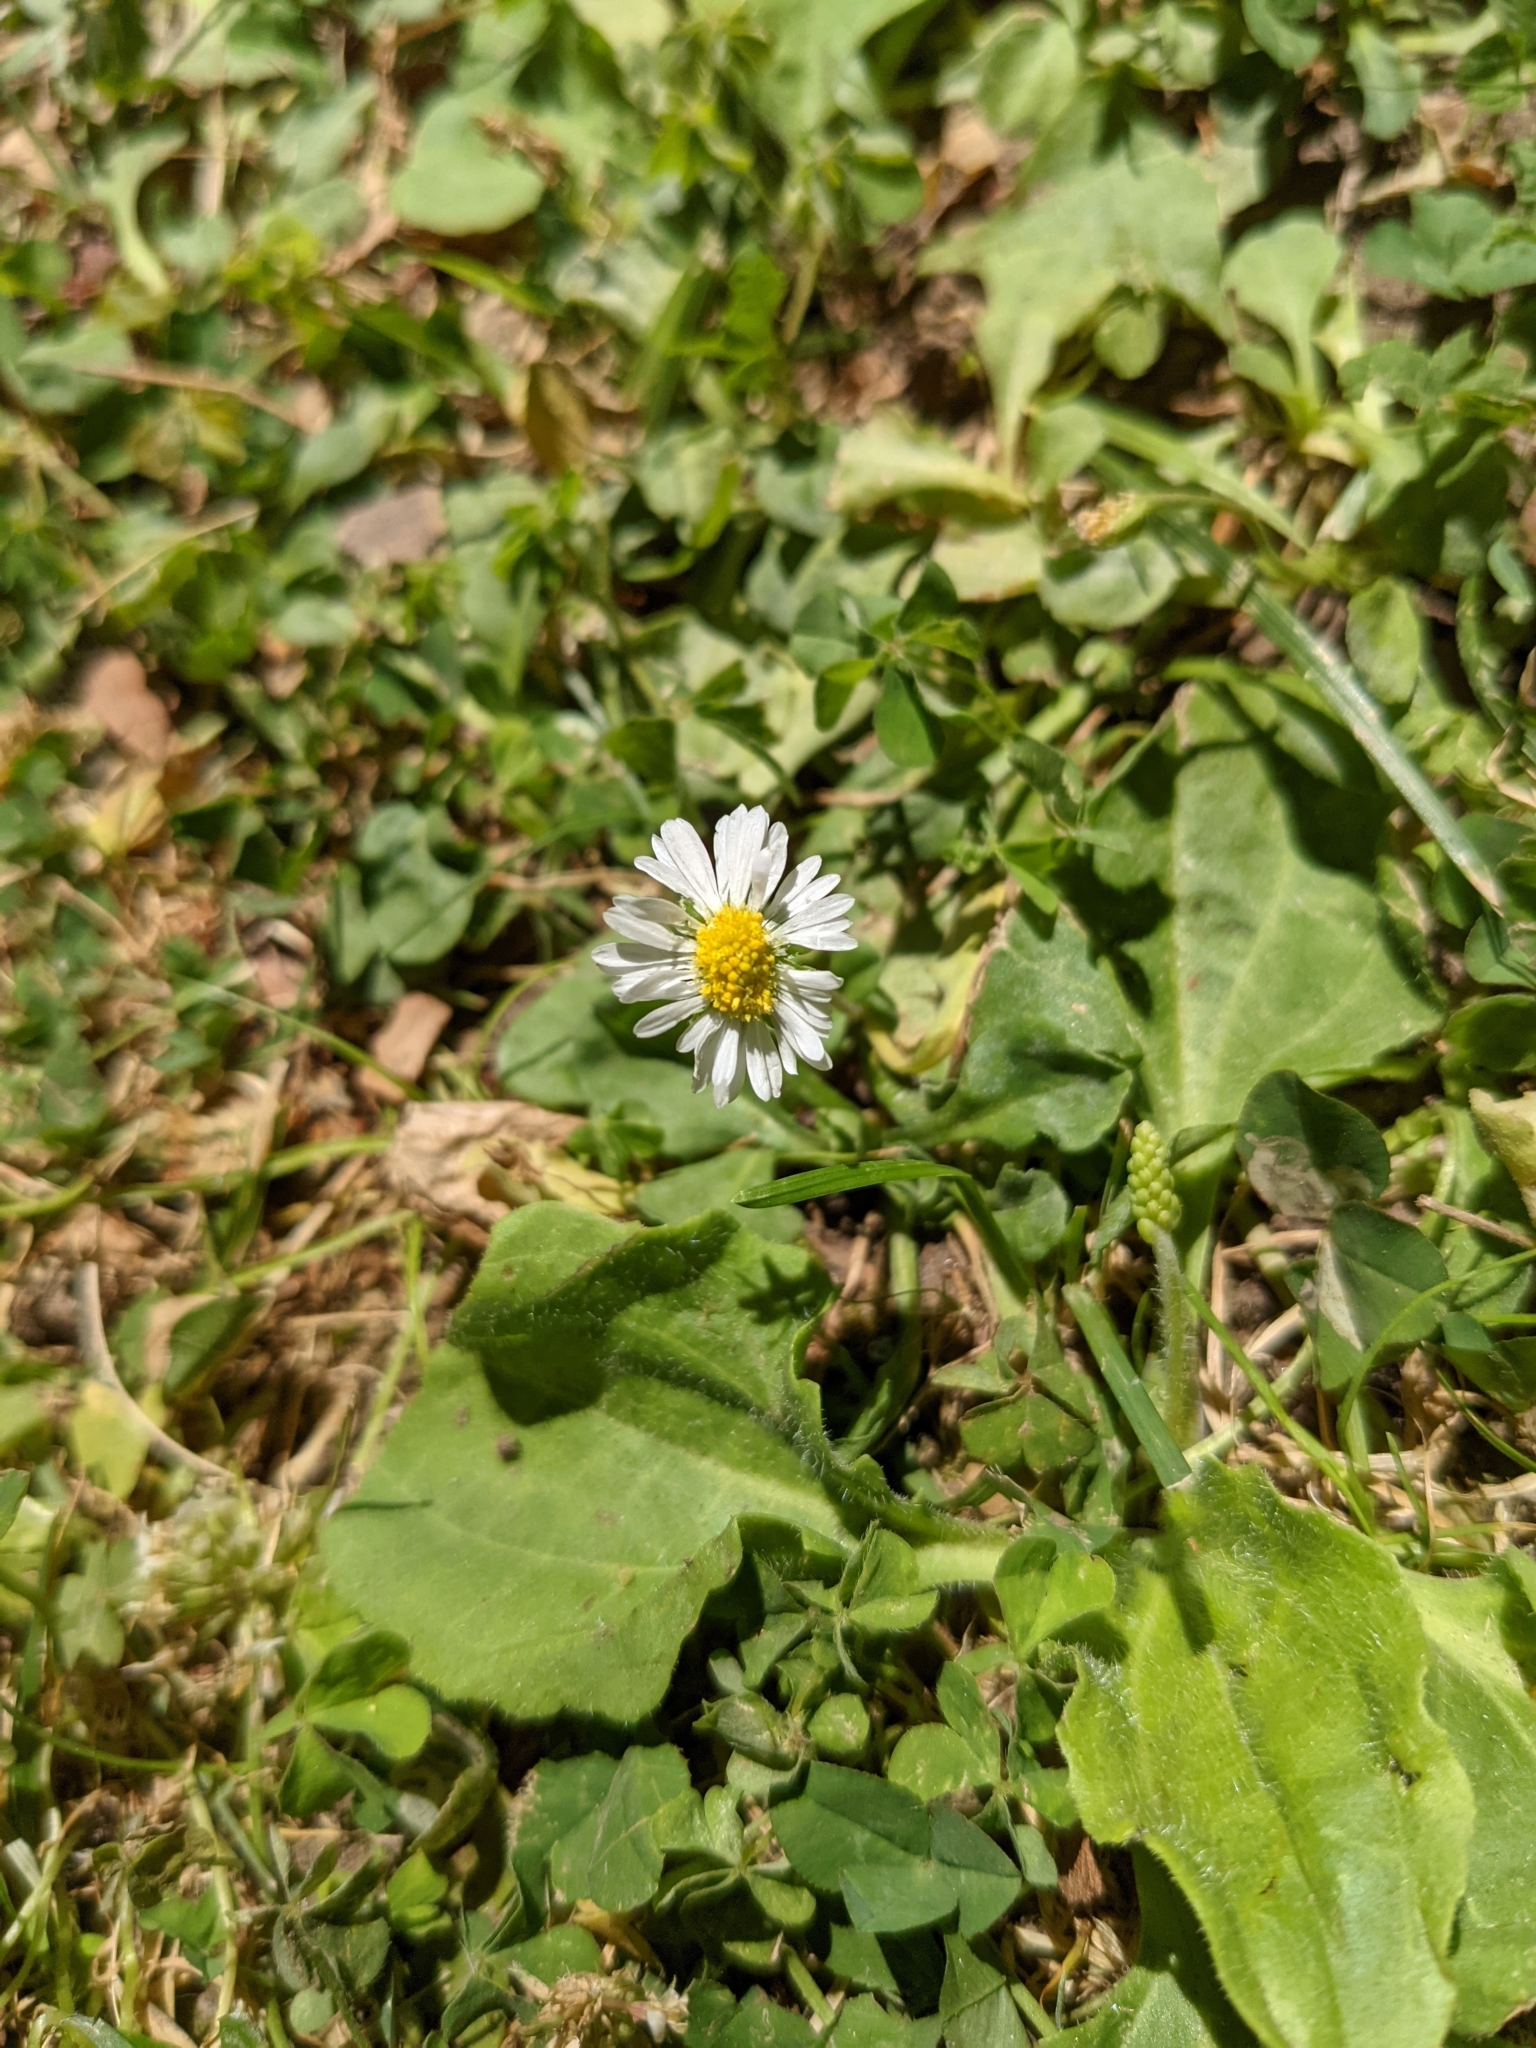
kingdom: Plantae
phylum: Tracheophyta
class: Magnoliopsida
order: Asterales
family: Asteraceae
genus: Bellis
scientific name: Bellis perennis
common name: Lawndaisy
